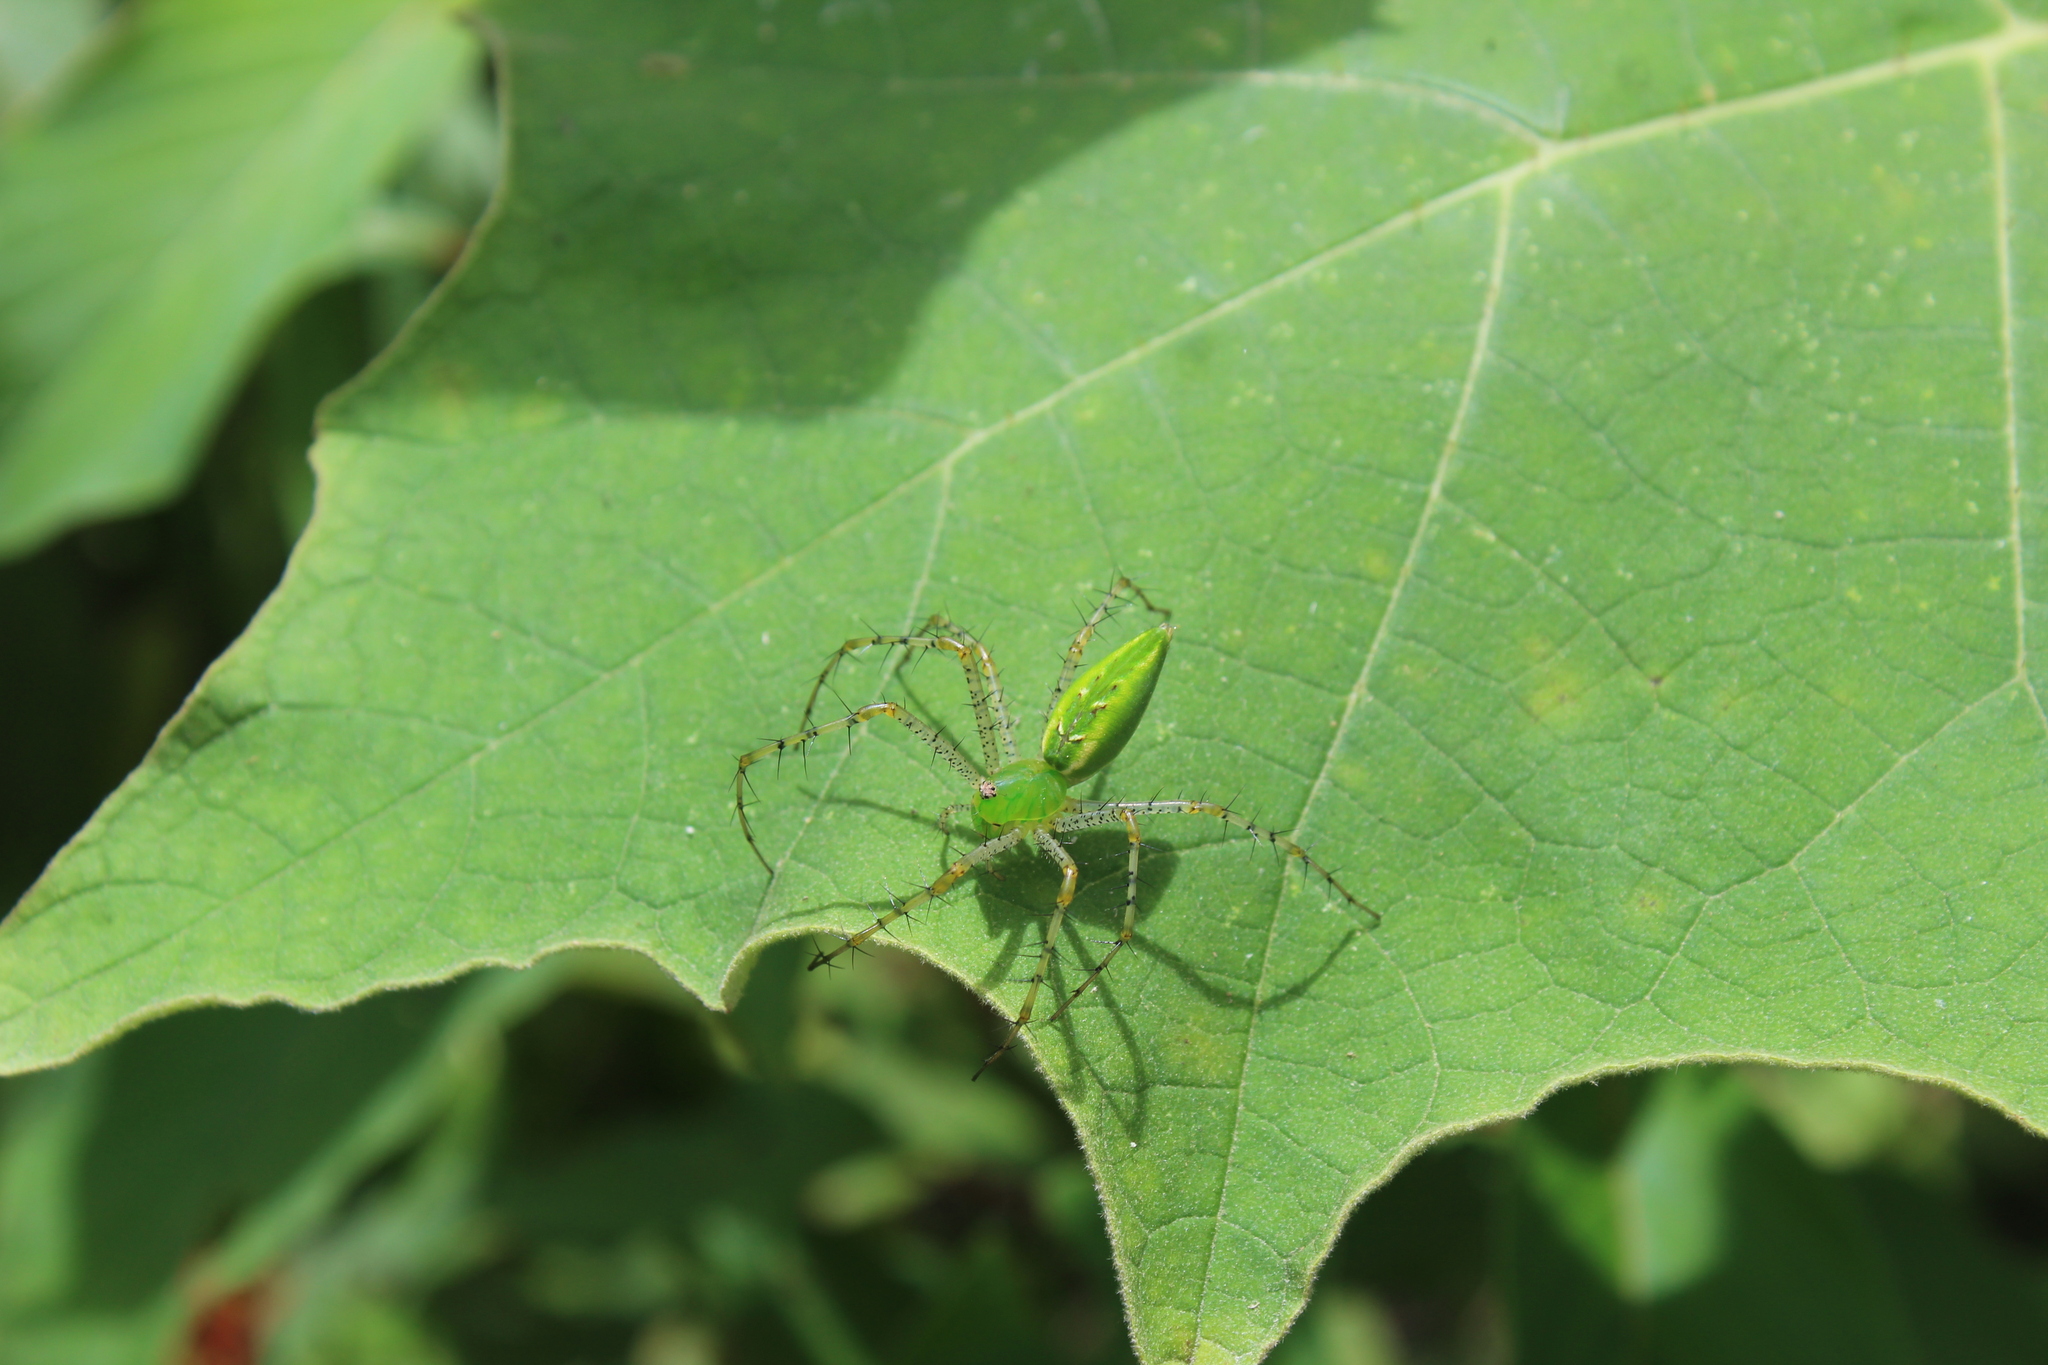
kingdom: Animalia
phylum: Arthropoda
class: Arachnida
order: Araneae
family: Oxyopidae
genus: Peucetia
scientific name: Peucetia viridans
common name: Lynx spiders
